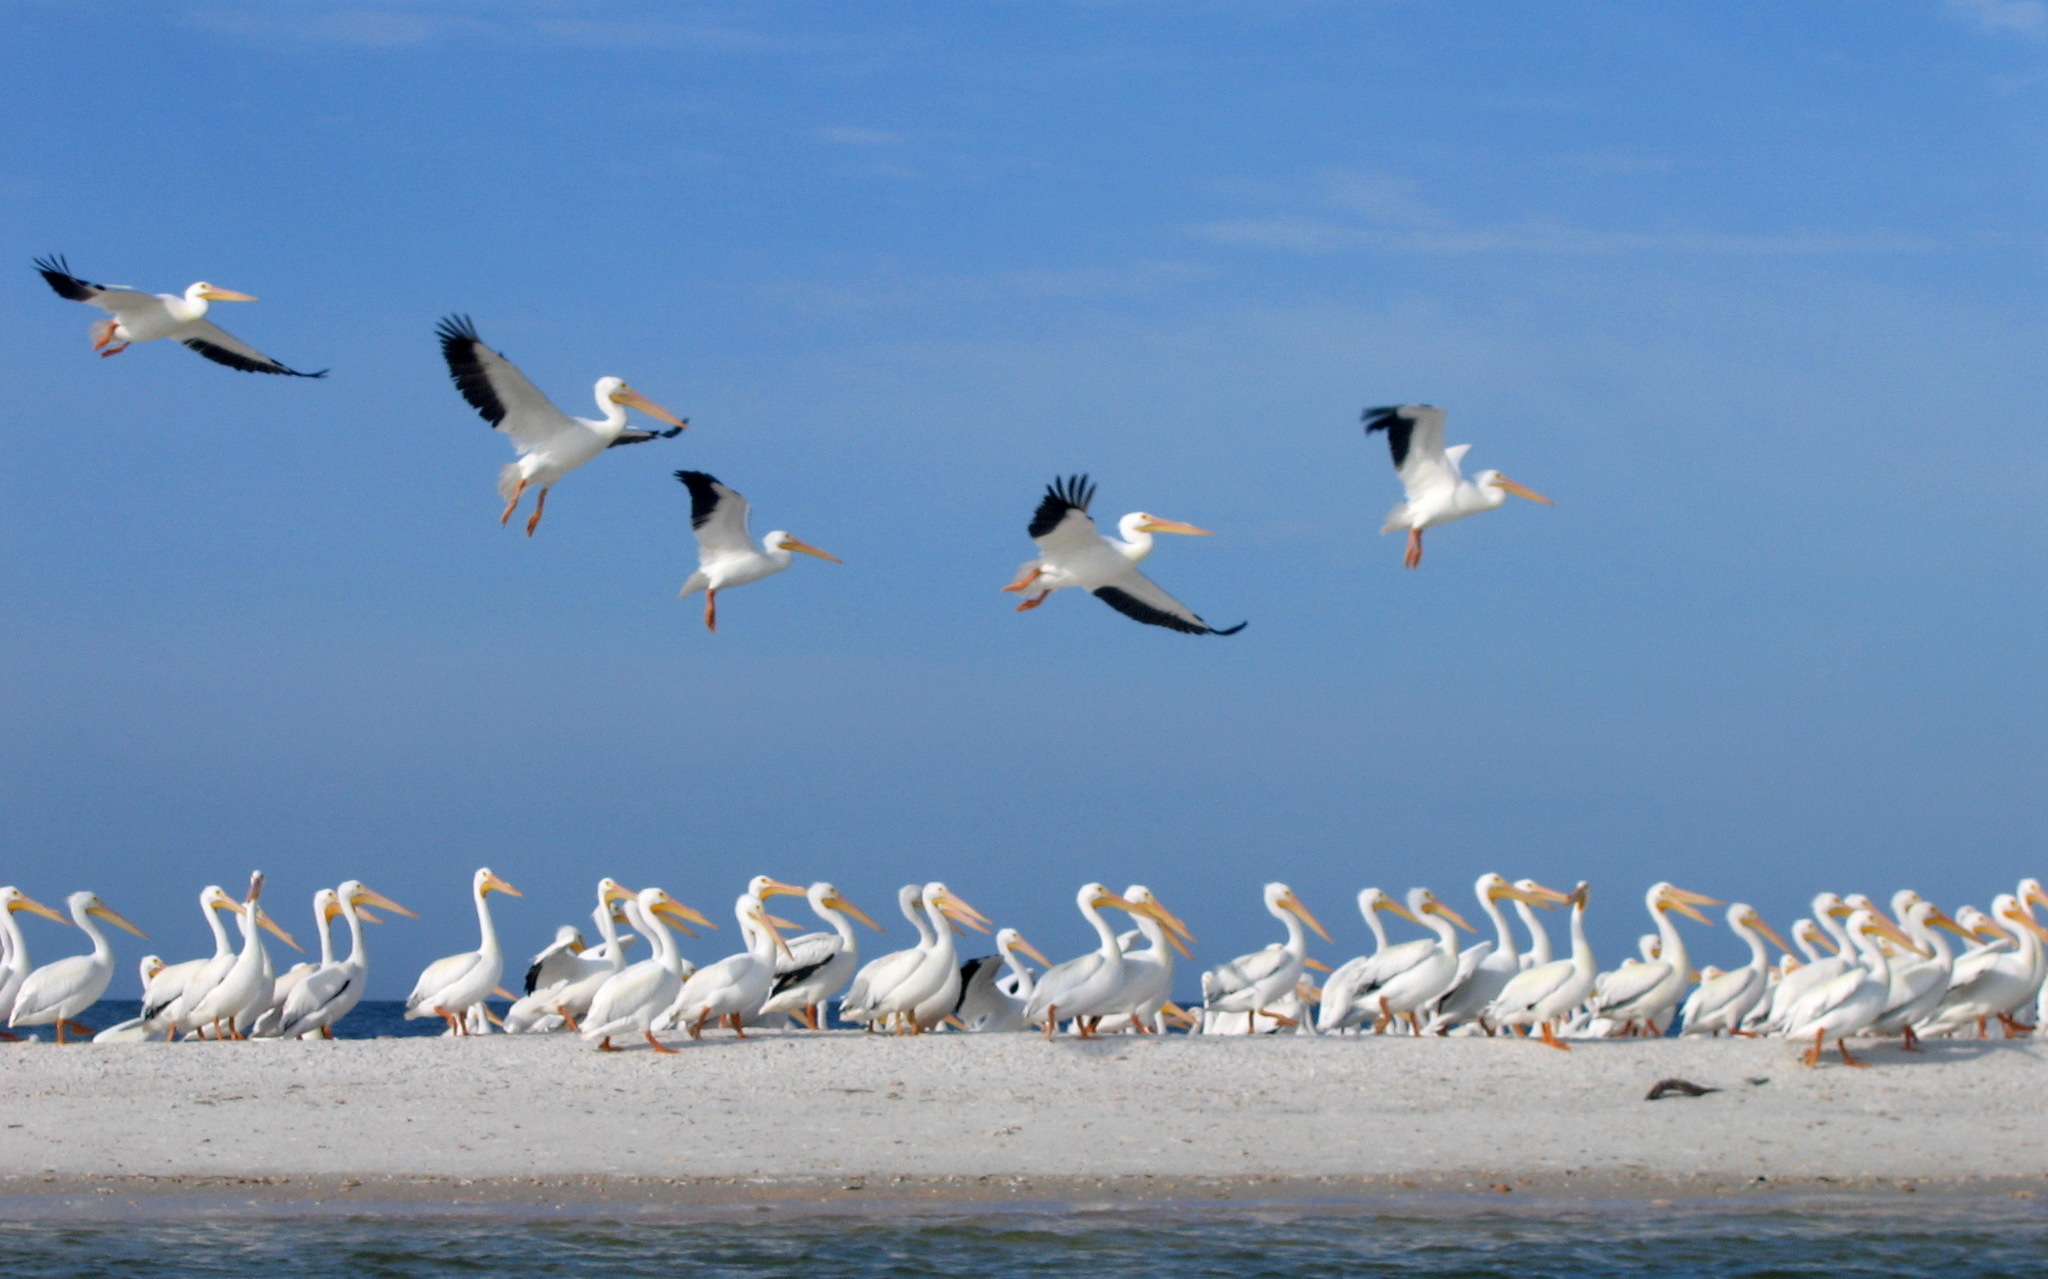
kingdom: Animalia
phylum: Chordata
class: Aves
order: Pelecaniformes
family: Pelecanidae
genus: Pelecanus
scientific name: Pelecanus erythrorhynchos
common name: American white pelican
